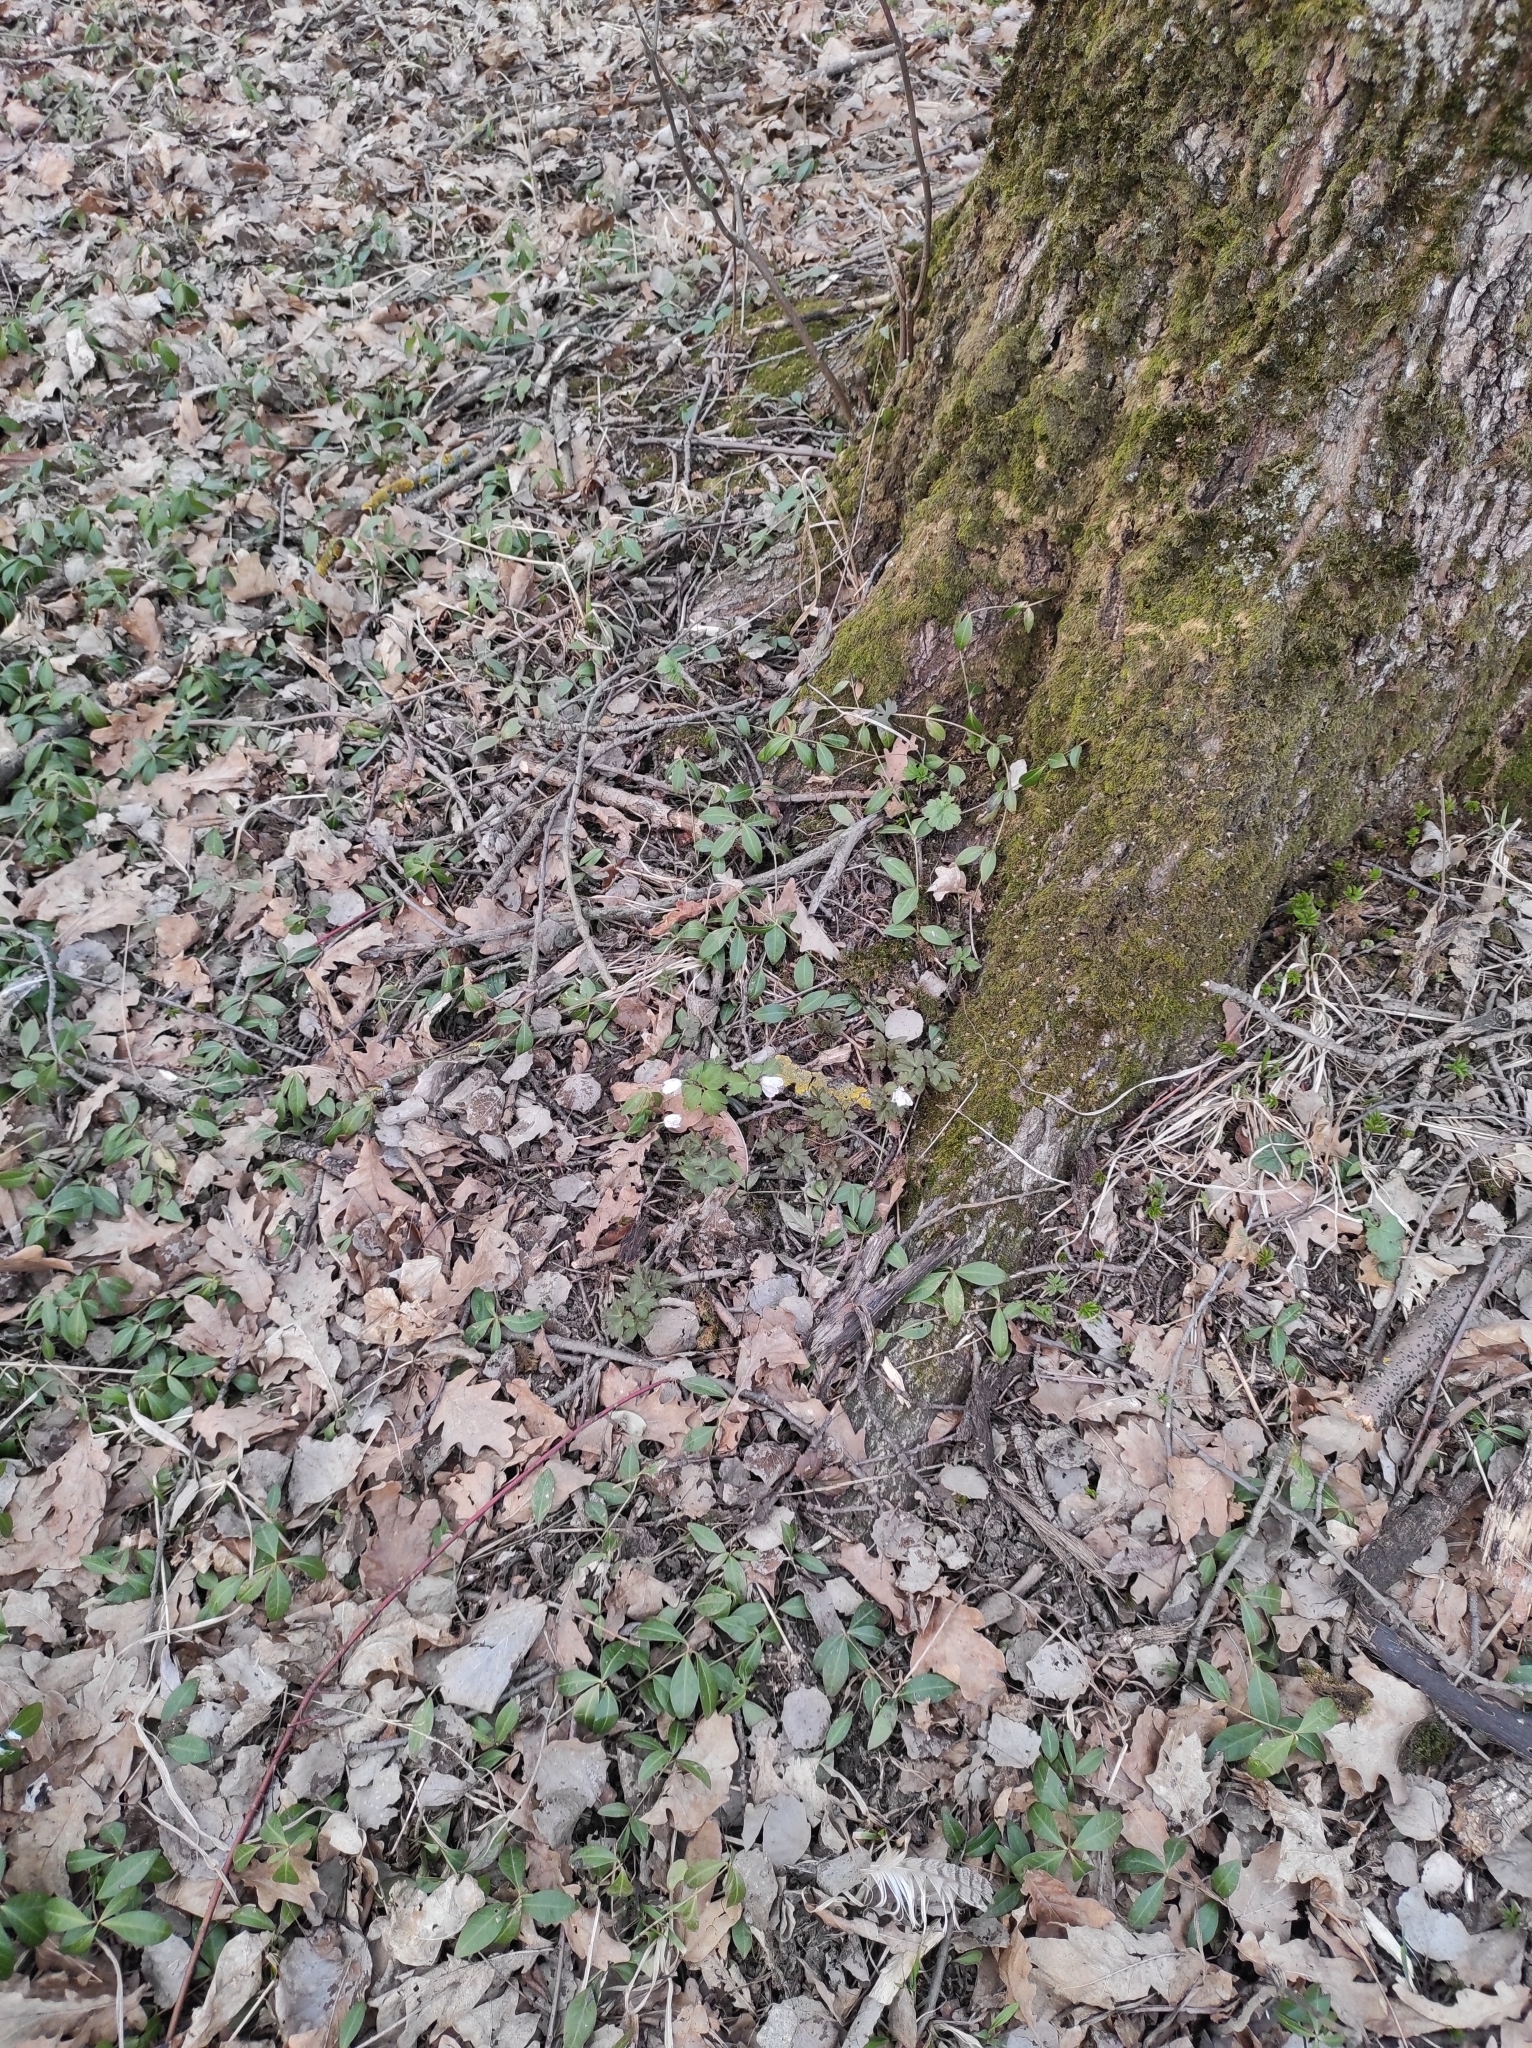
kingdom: Plantae
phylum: Tracheophyta
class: Magnoliopsida
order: Ranunculales
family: Ranunculaceae
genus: Anemone
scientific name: Anemone altaica
